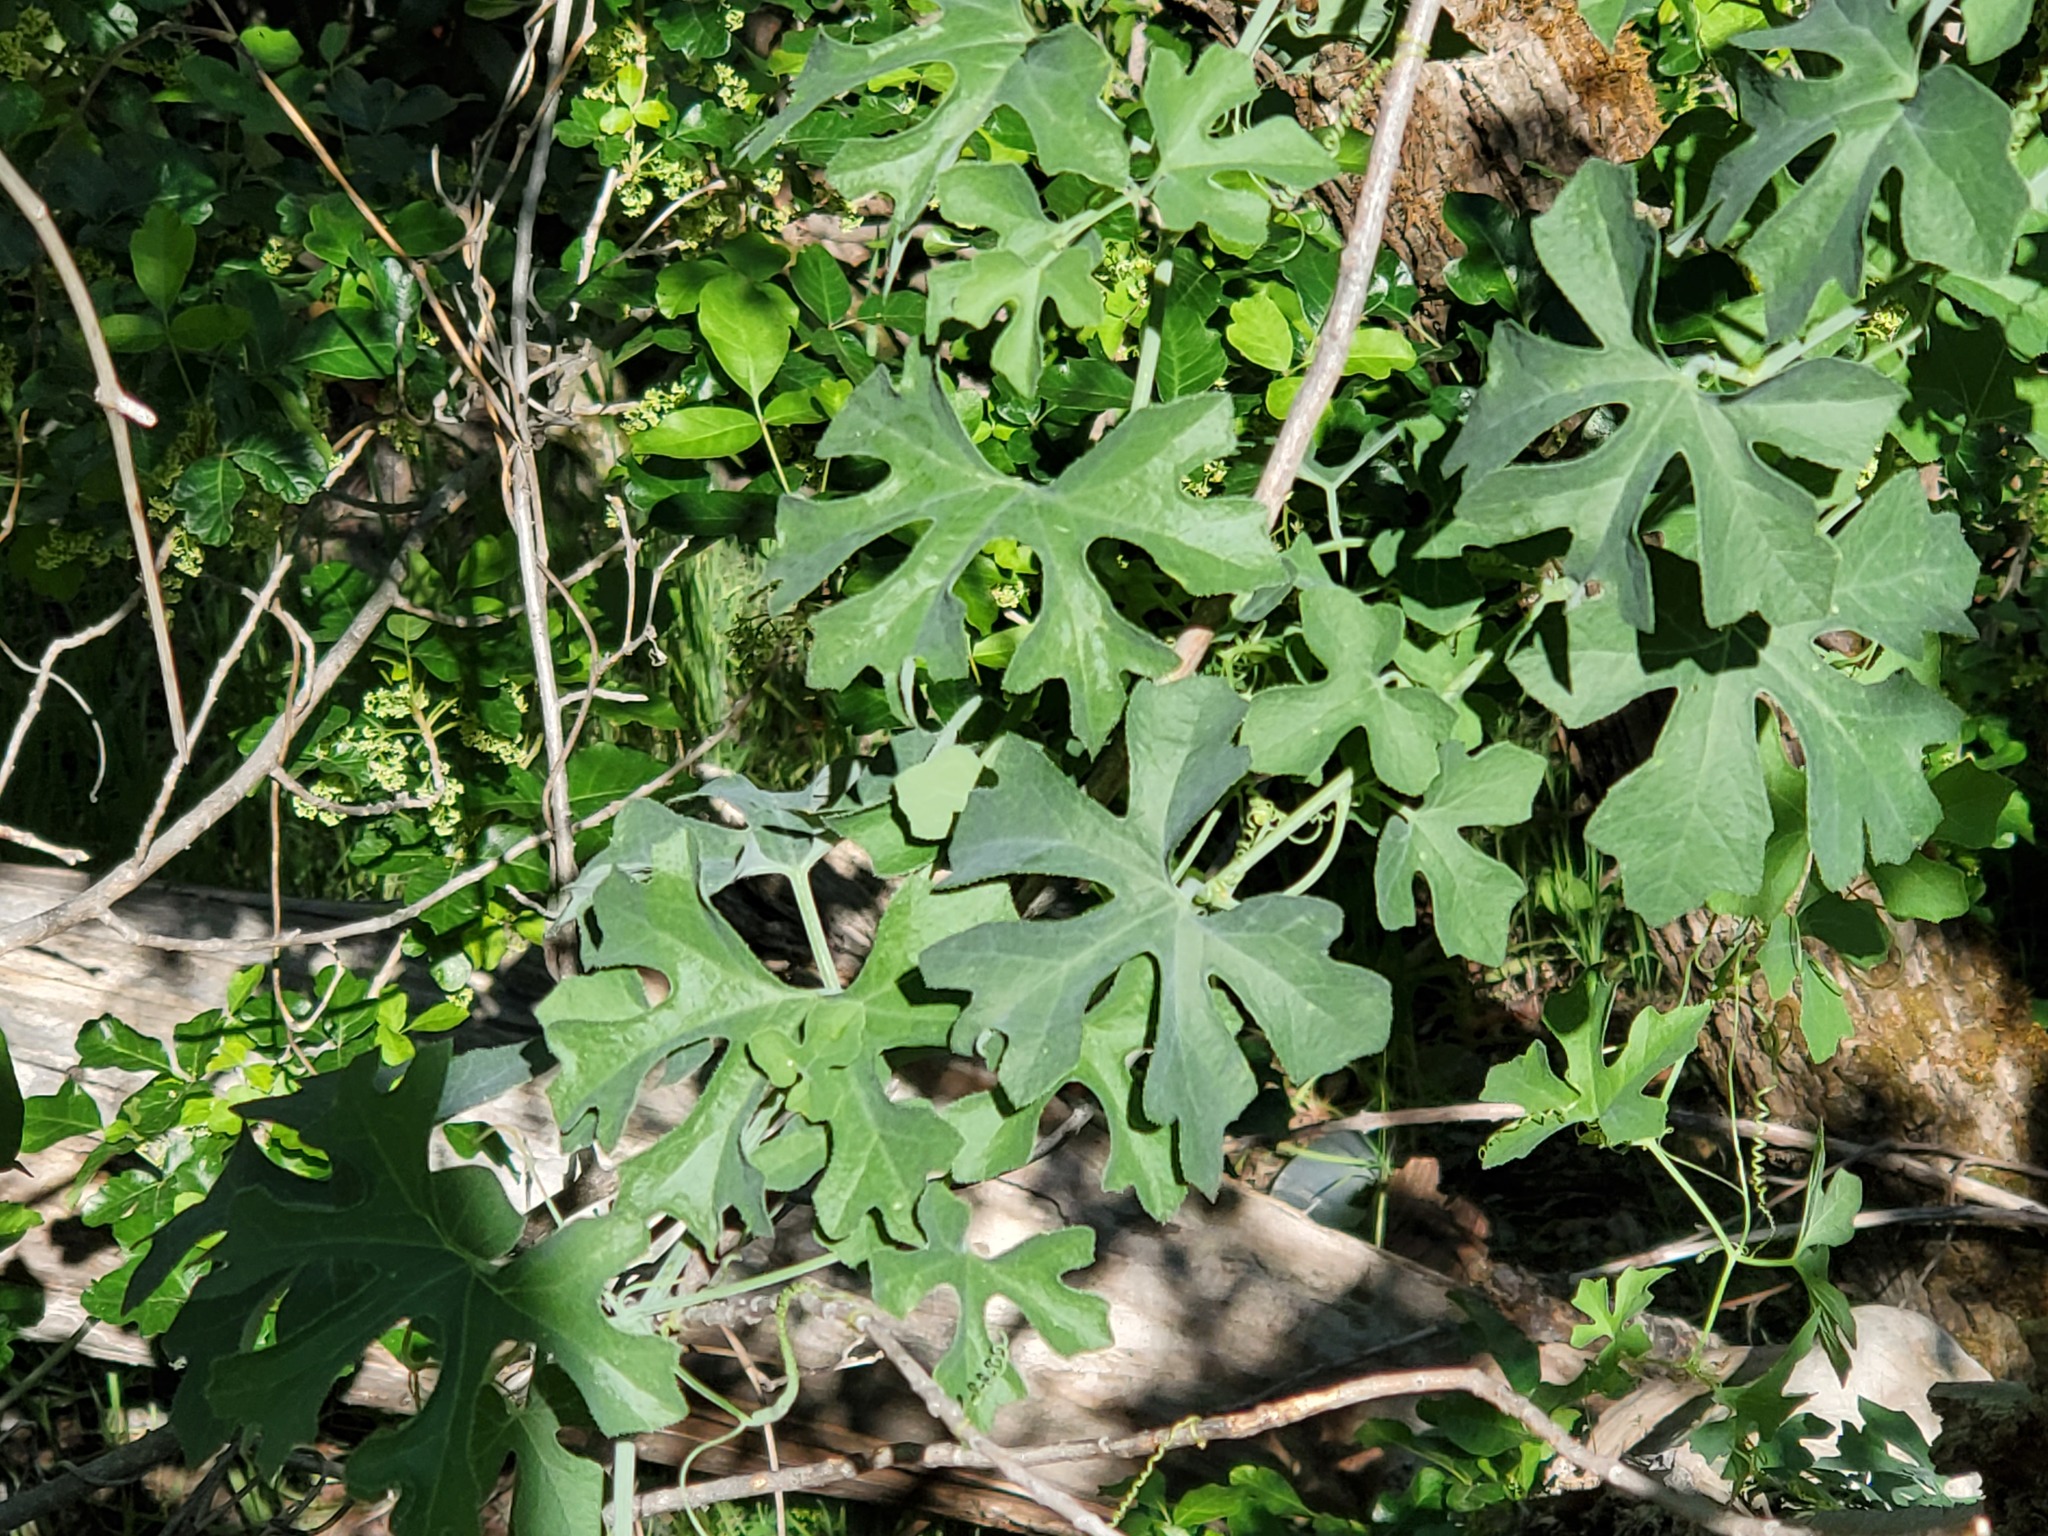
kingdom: Plantae
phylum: Tracheophyta
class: Magnoliopsida
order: Cucurbitales
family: Cucurbitaceae
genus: Marah
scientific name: Marah watsonii
